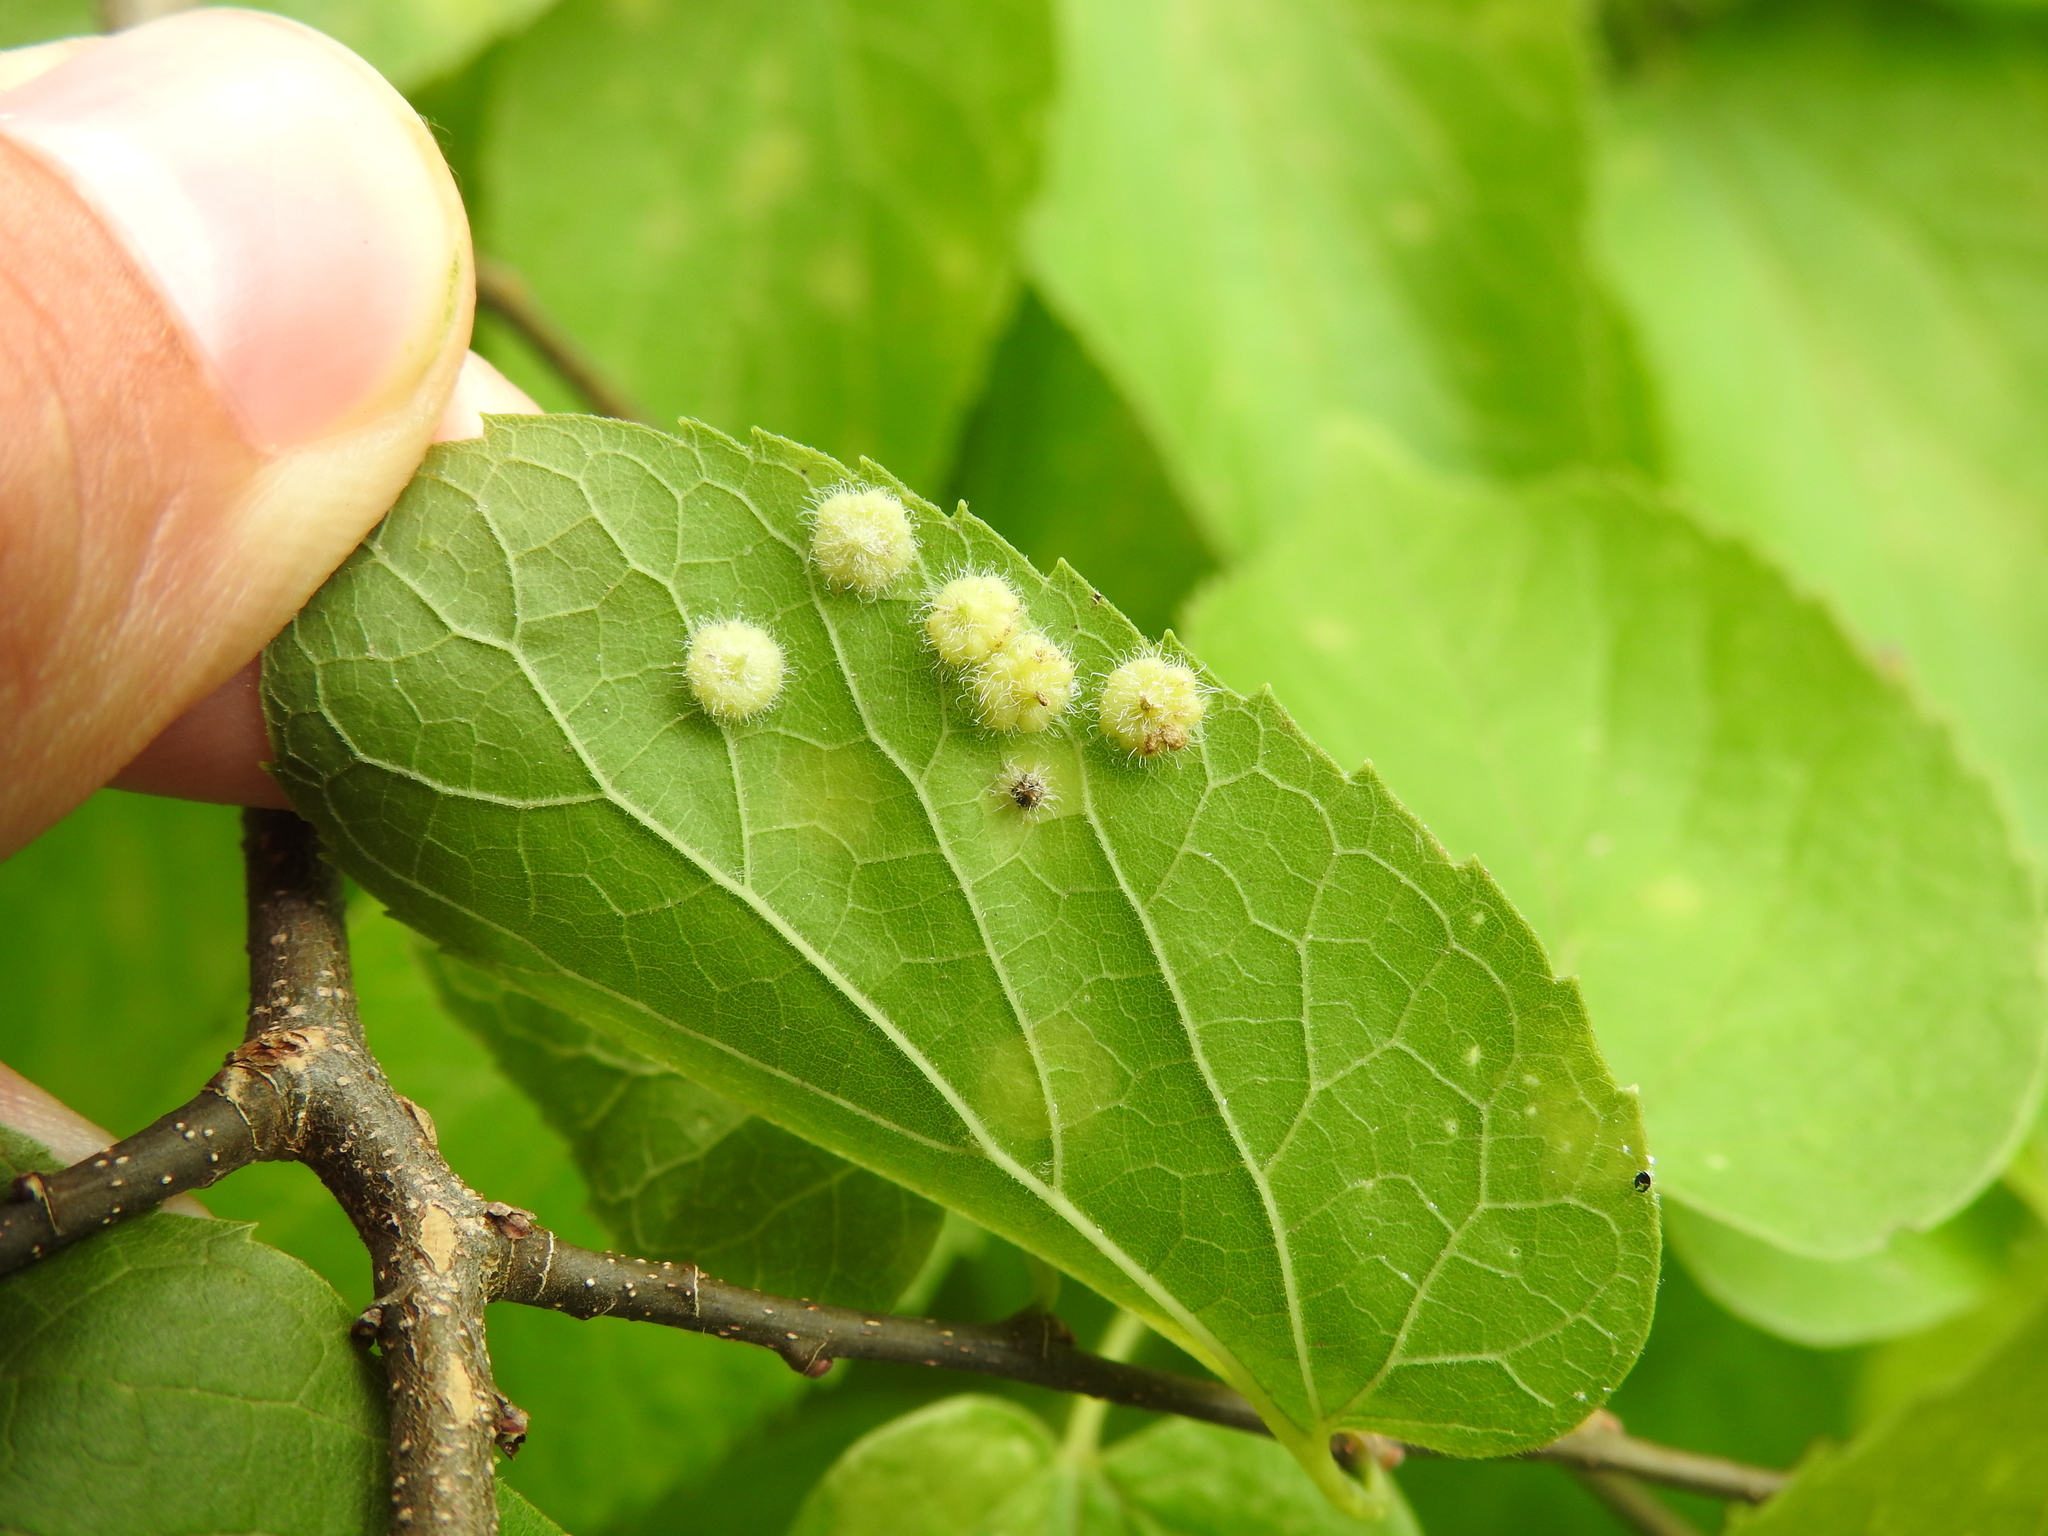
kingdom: Animalia
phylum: Arthropoda
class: Insecta
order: Diptera
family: Cecidomyiidae
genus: Celticecis
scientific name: Celticecis capsularis
